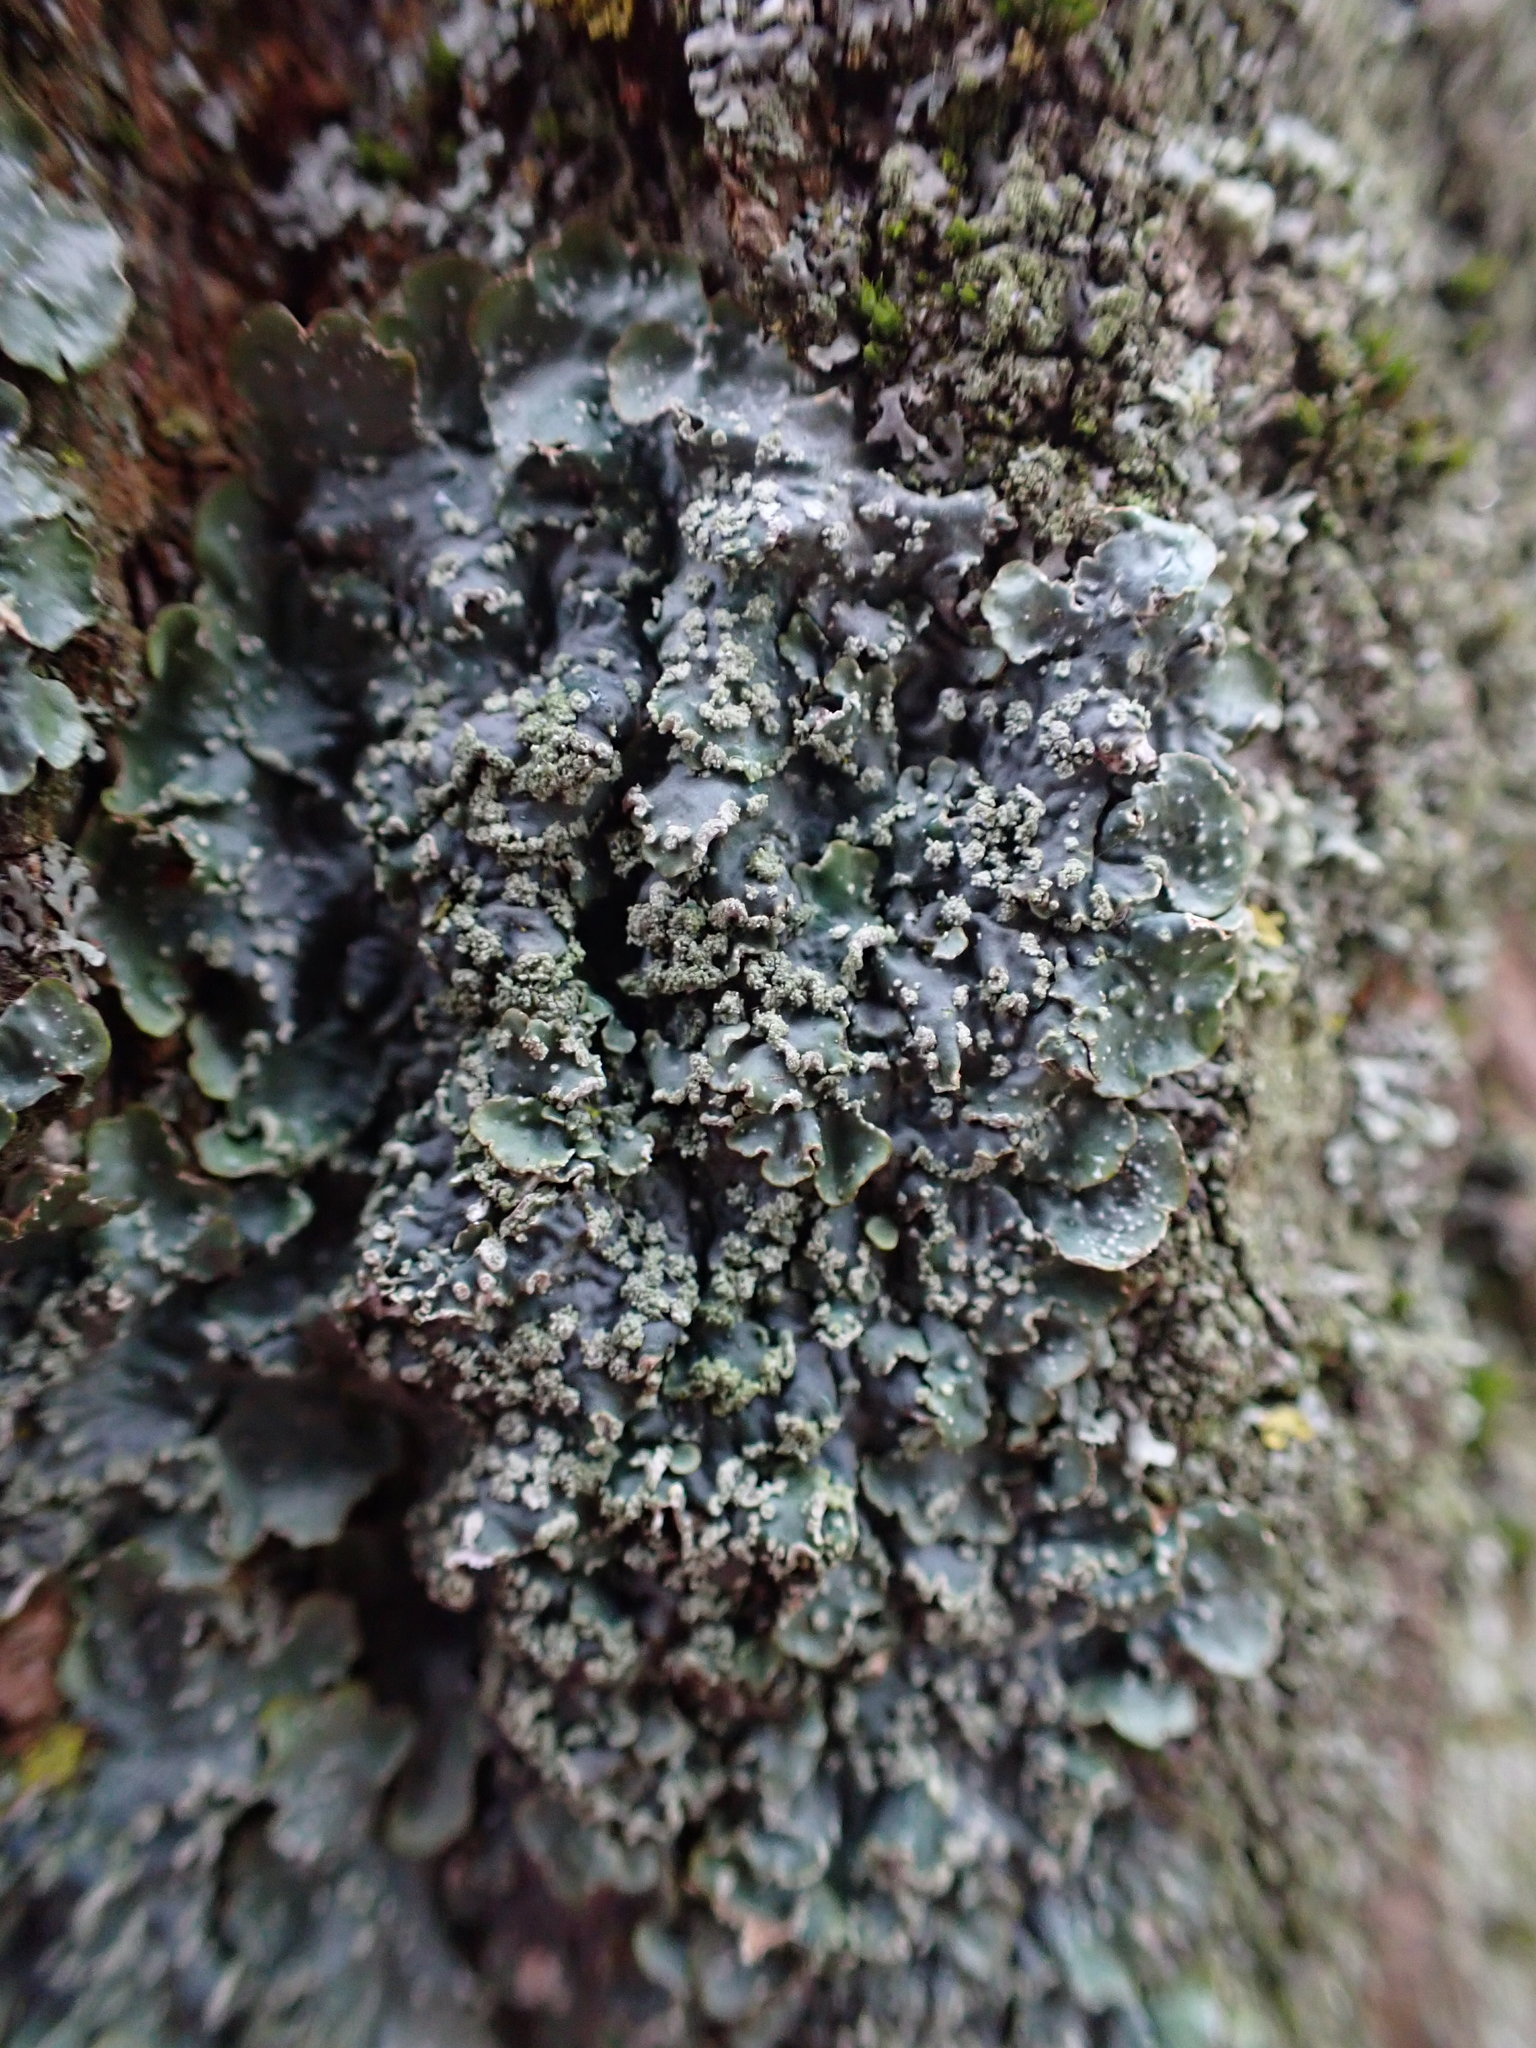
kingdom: Fungi
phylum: Ascomycota
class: Lecanoromycetes
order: Lecanorales
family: Parmeliaceae
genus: Punctelia
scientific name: Punctelia
